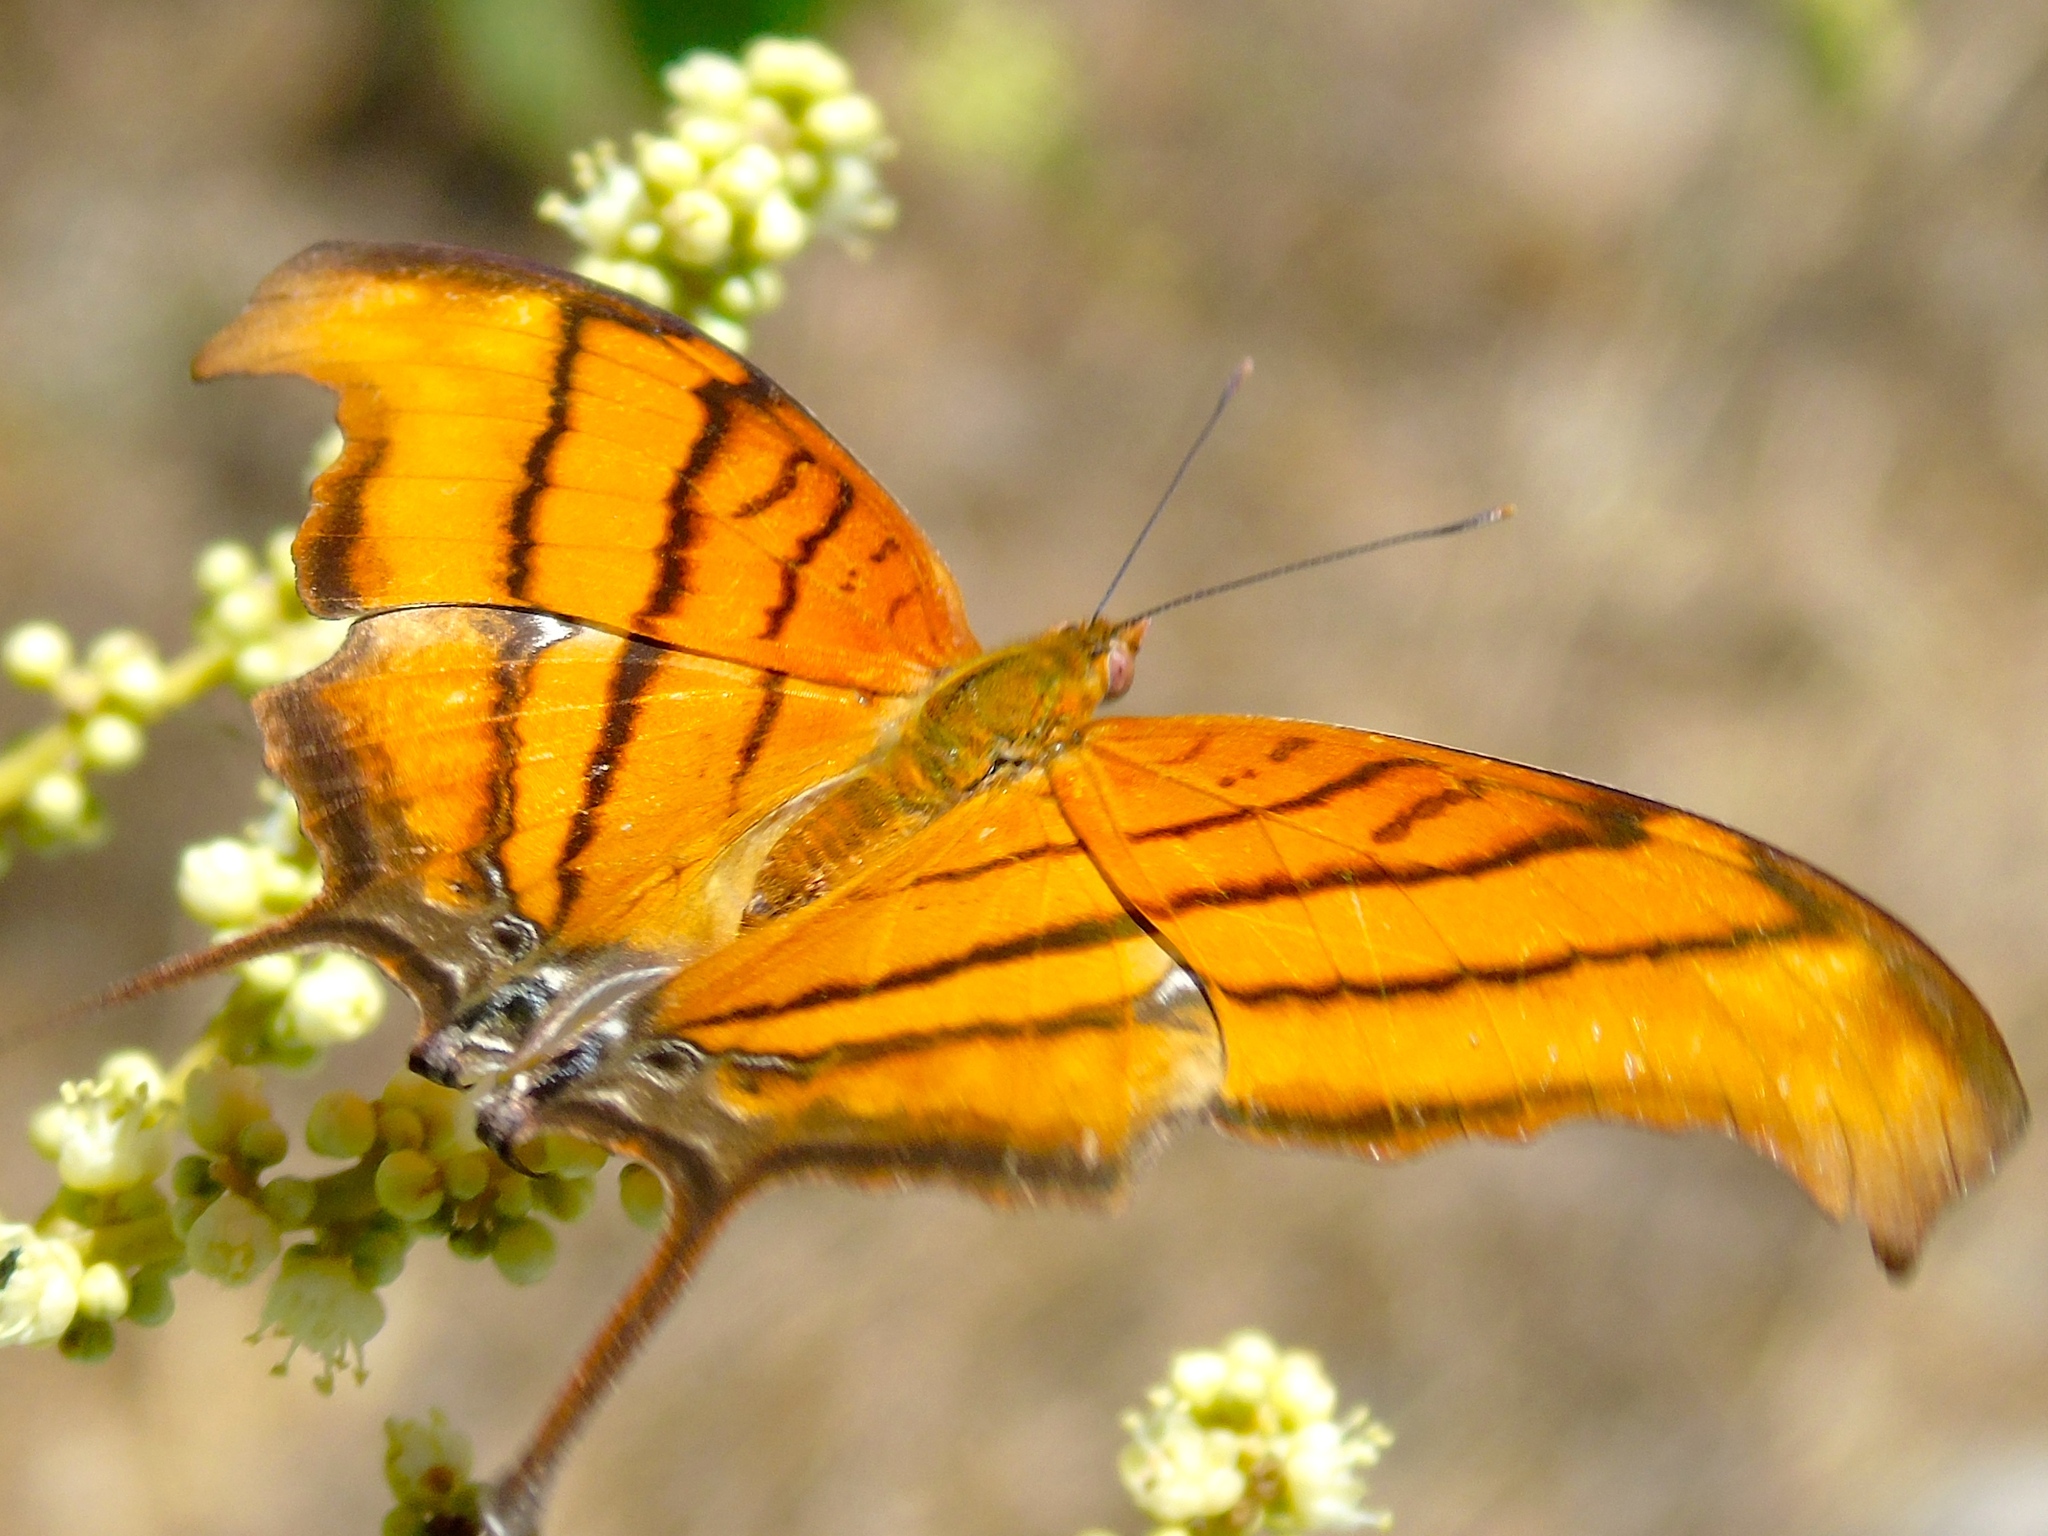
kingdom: Animalia
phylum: Arthropoda
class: Insecta
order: Lepidoptera
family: Nymphalidae
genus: Marpesia
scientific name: Marpesia petreus
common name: Red dagger wing
